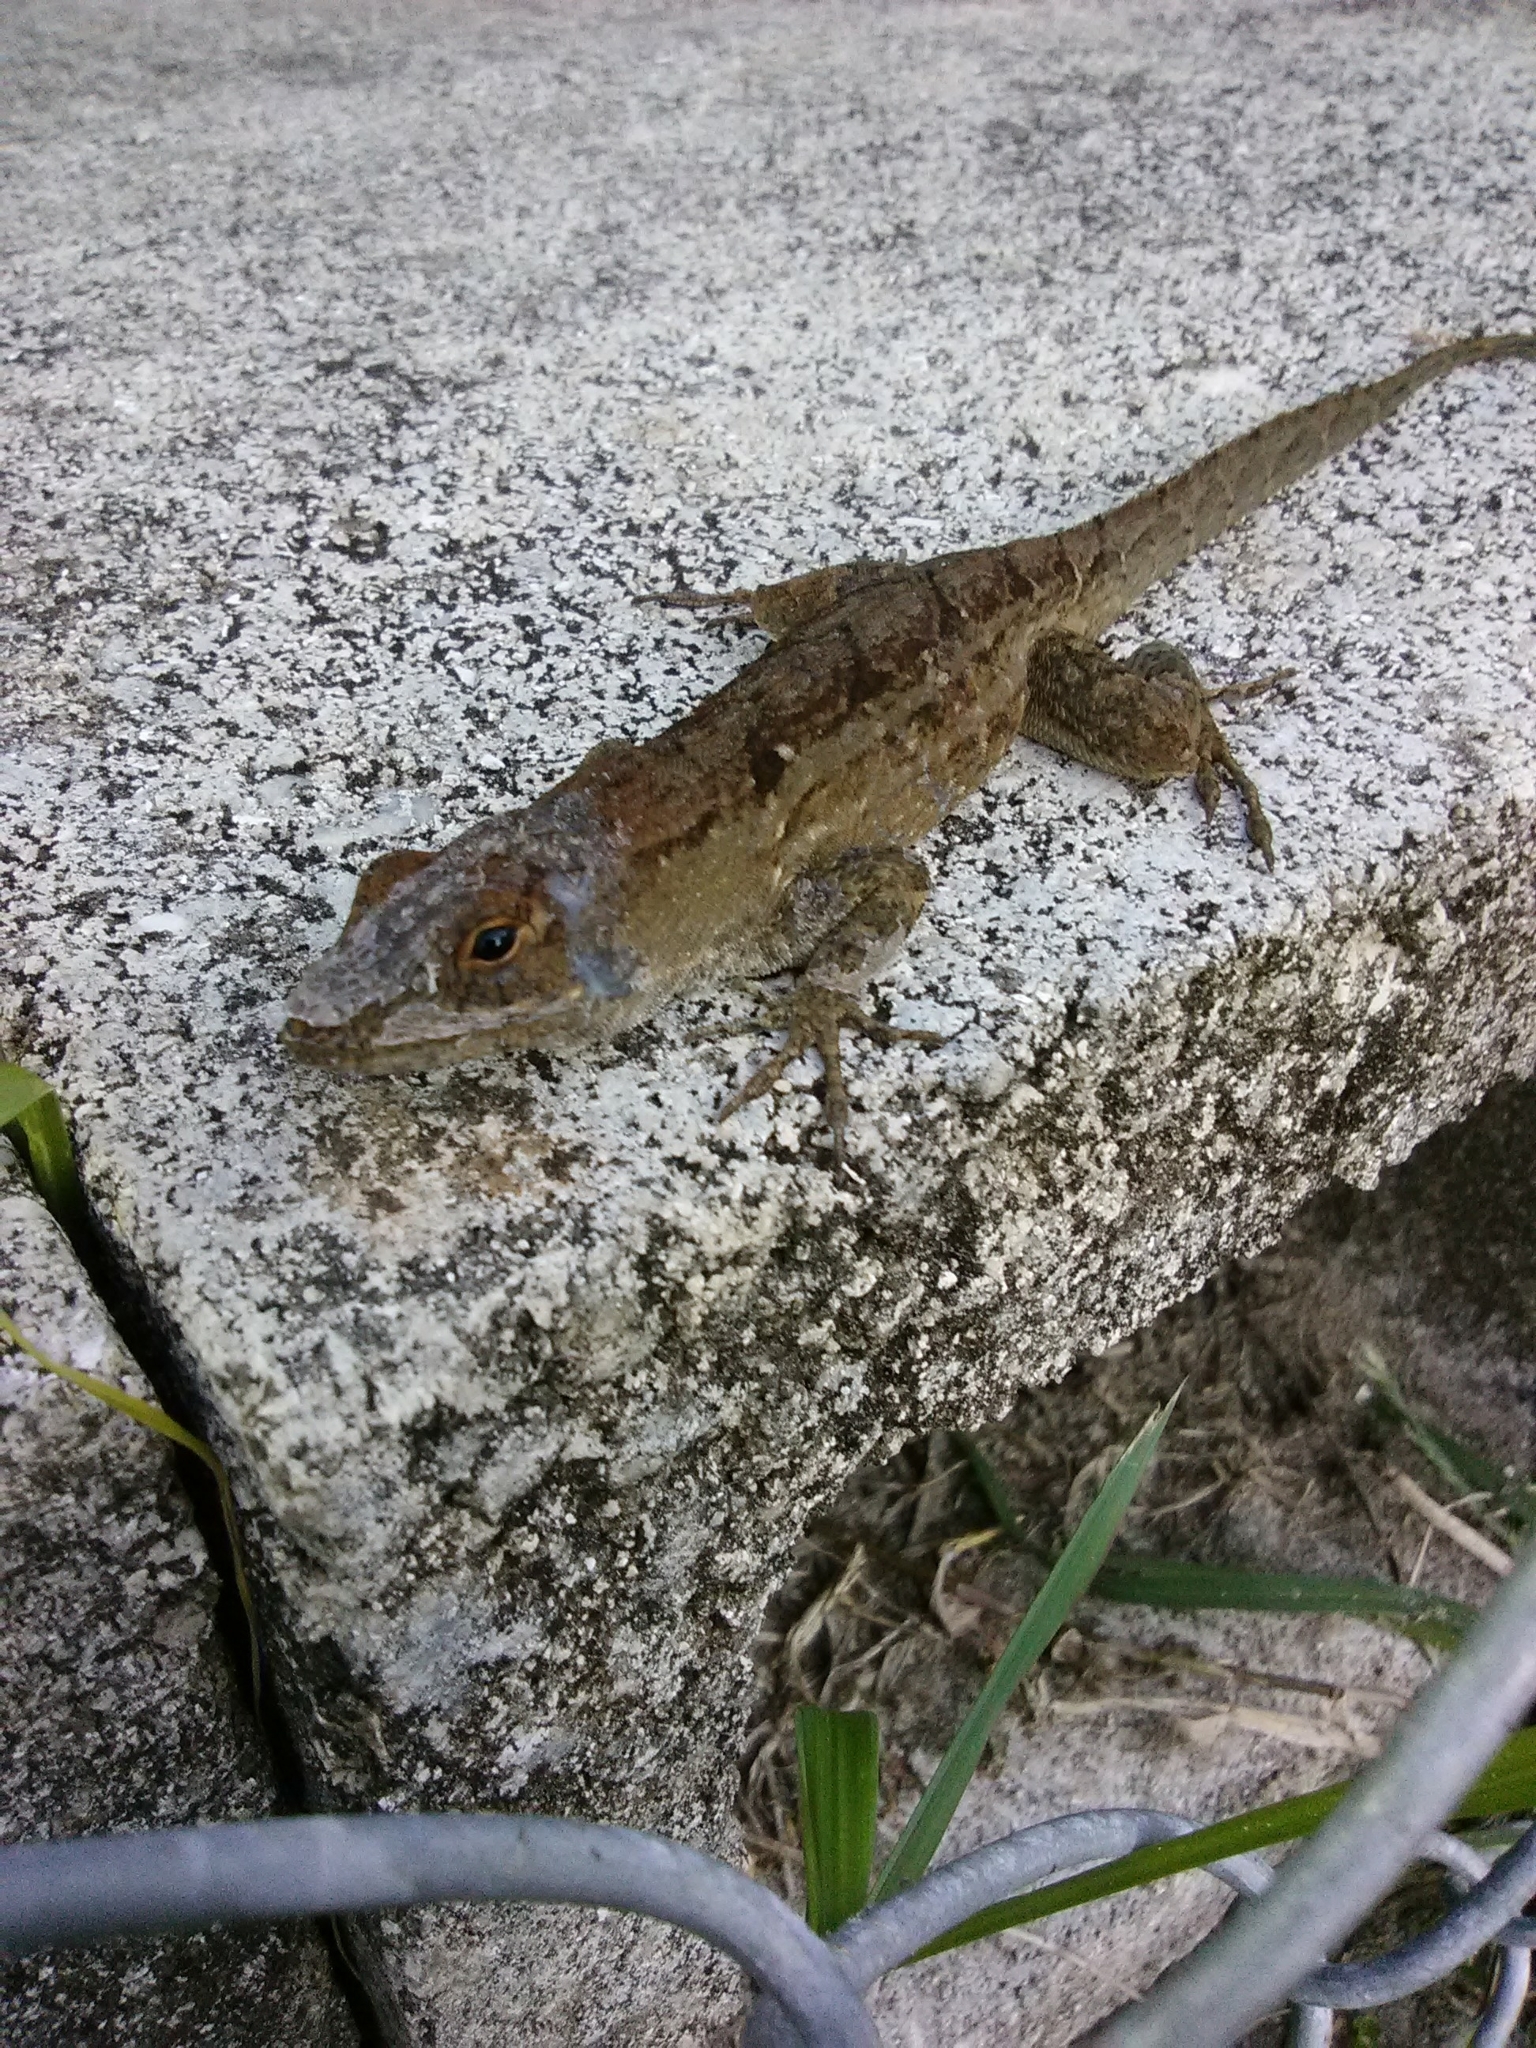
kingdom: Animalia
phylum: Chordata
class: Squamata
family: Dactyloidae
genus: Anolis
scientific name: Anolis sagrei
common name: Brown anole
